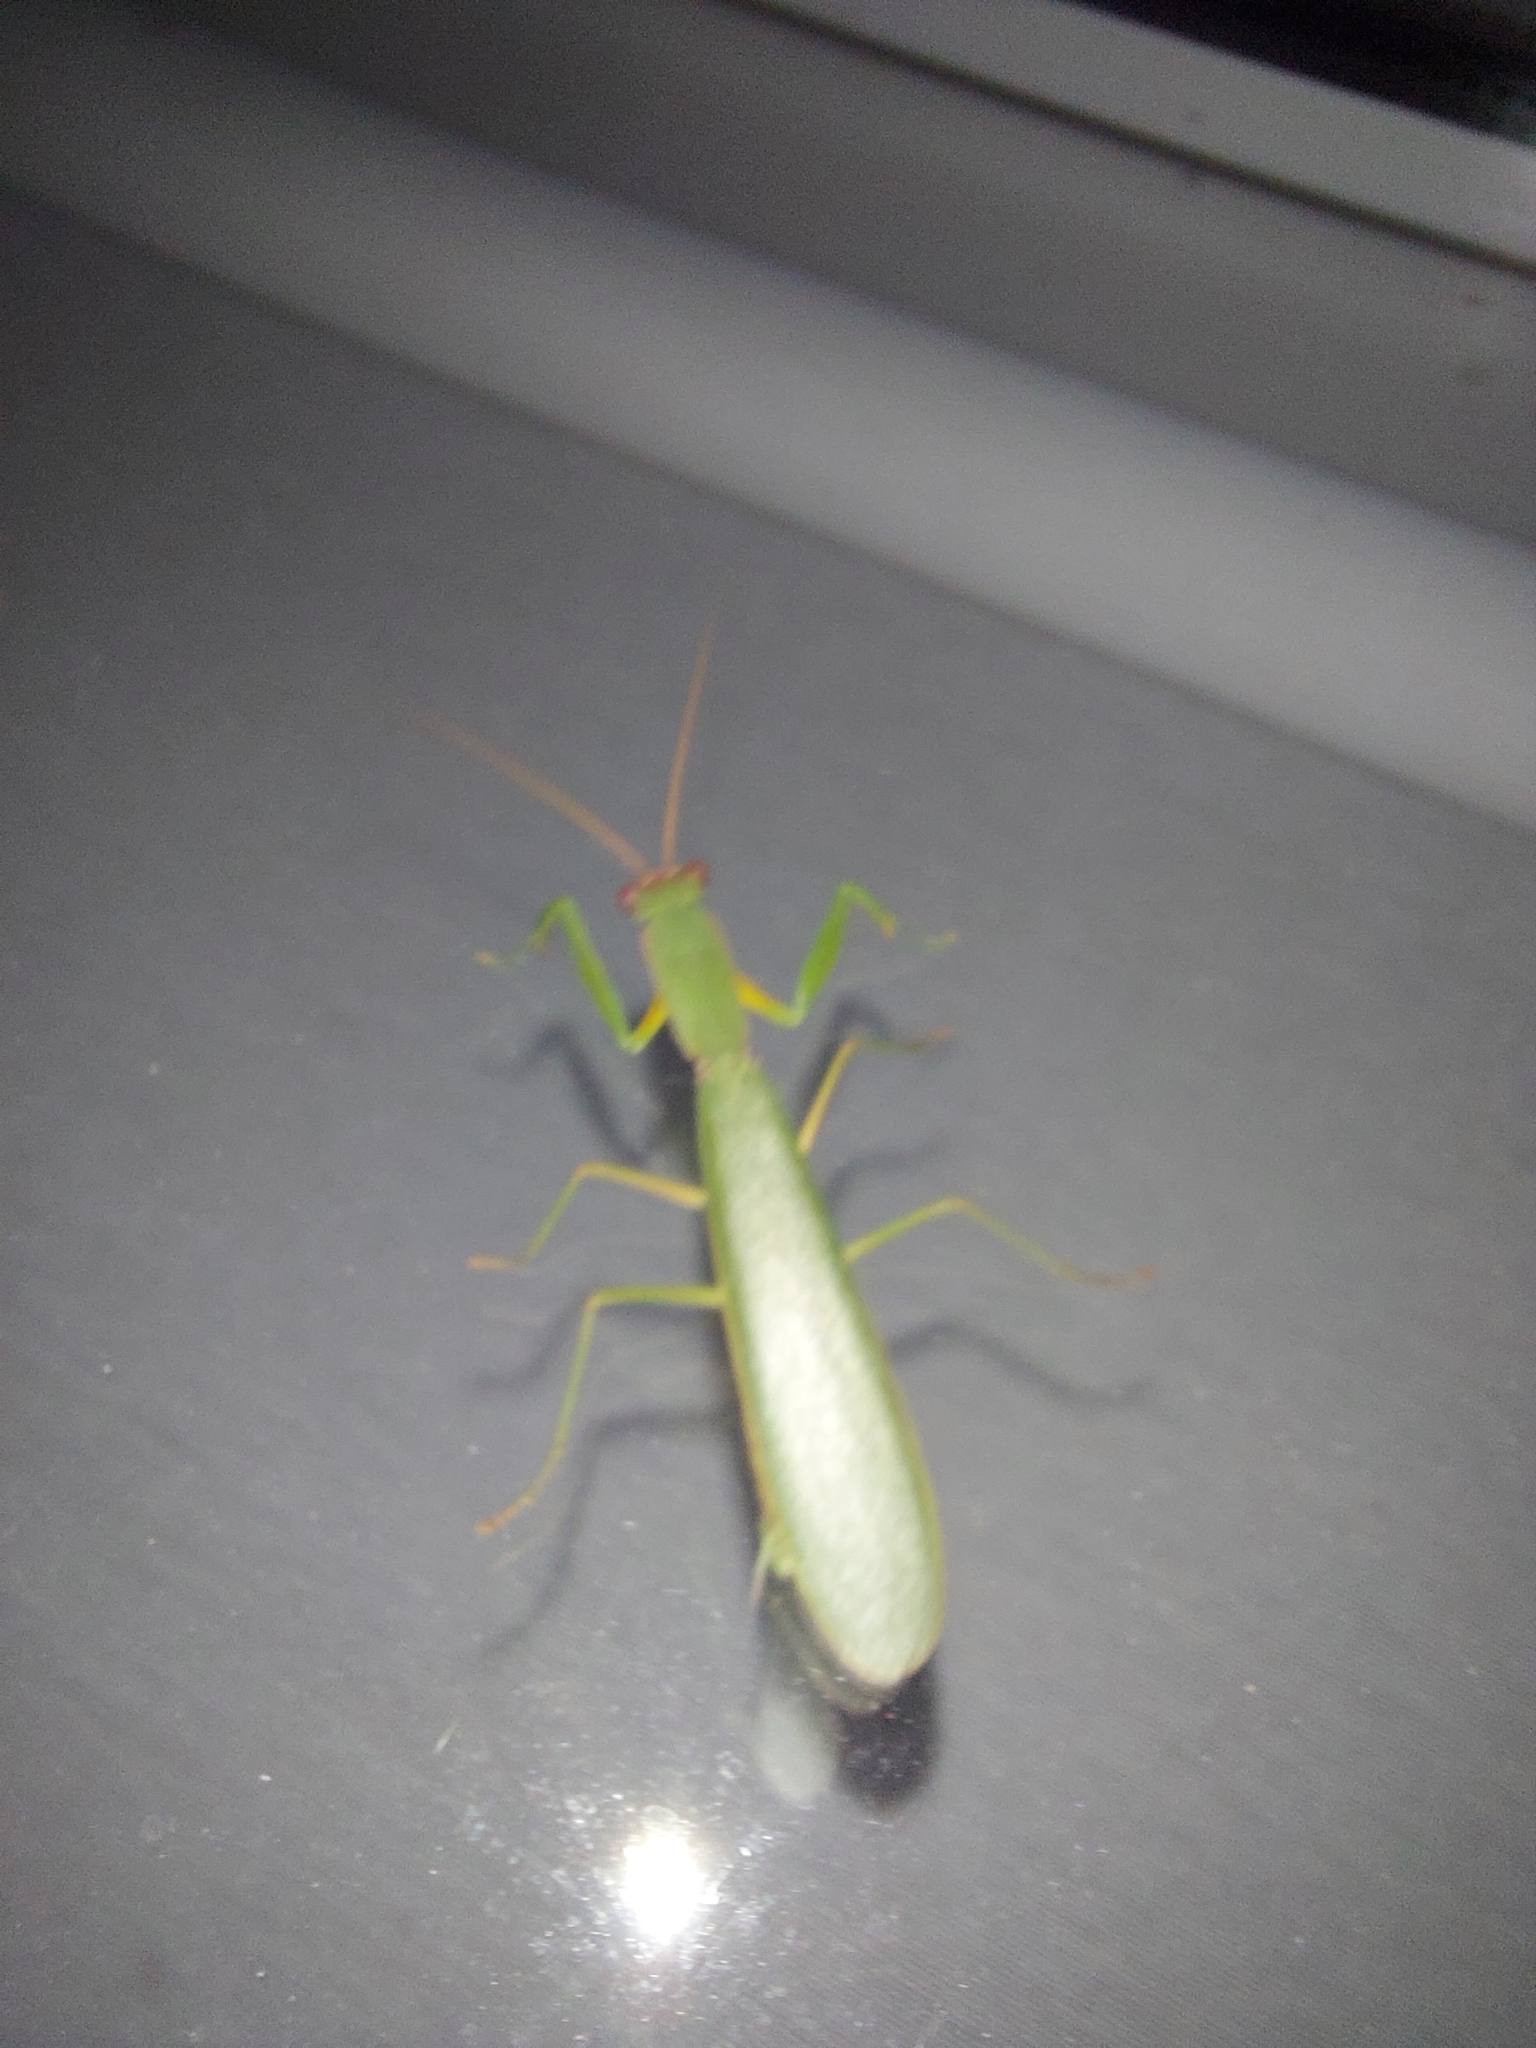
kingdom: Animalia
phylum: Arthropoda
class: Insecta
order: Mantodea
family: Mantidae
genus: Orthodera
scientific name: Orthodera ministralis
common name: Mantis
